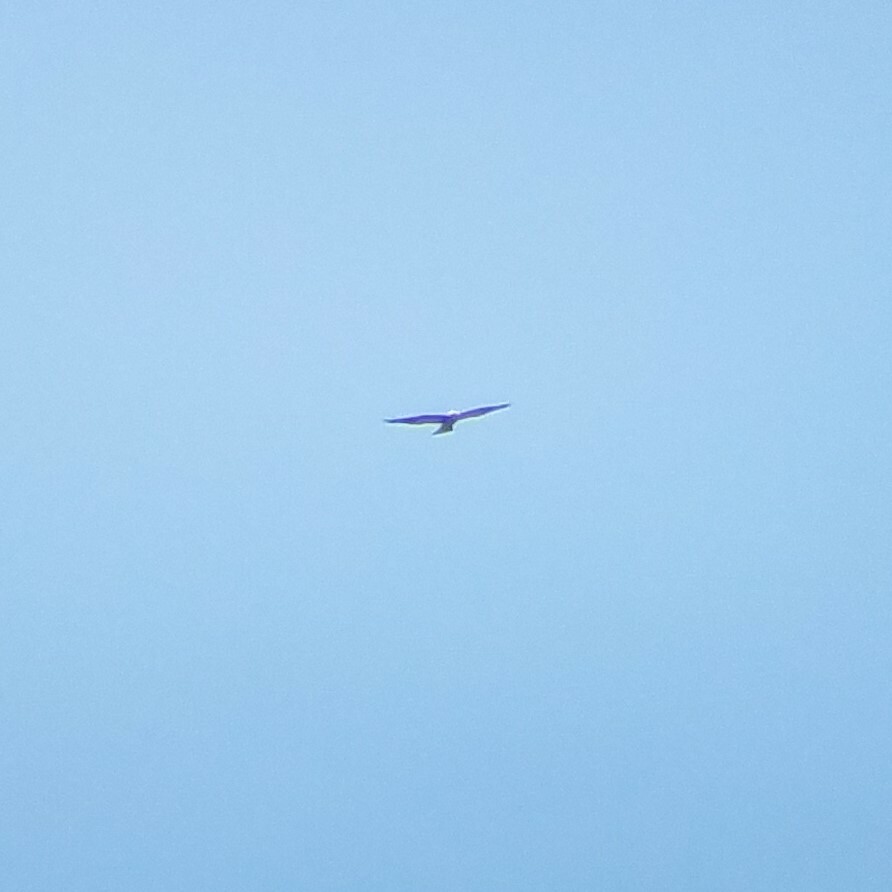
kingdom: Animalia
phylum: Chordata
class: Aves
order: Accipitriformes
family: Accipitridae
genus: Ictinia
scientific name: Ictinia mississippiensis
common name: Mississippi kite
